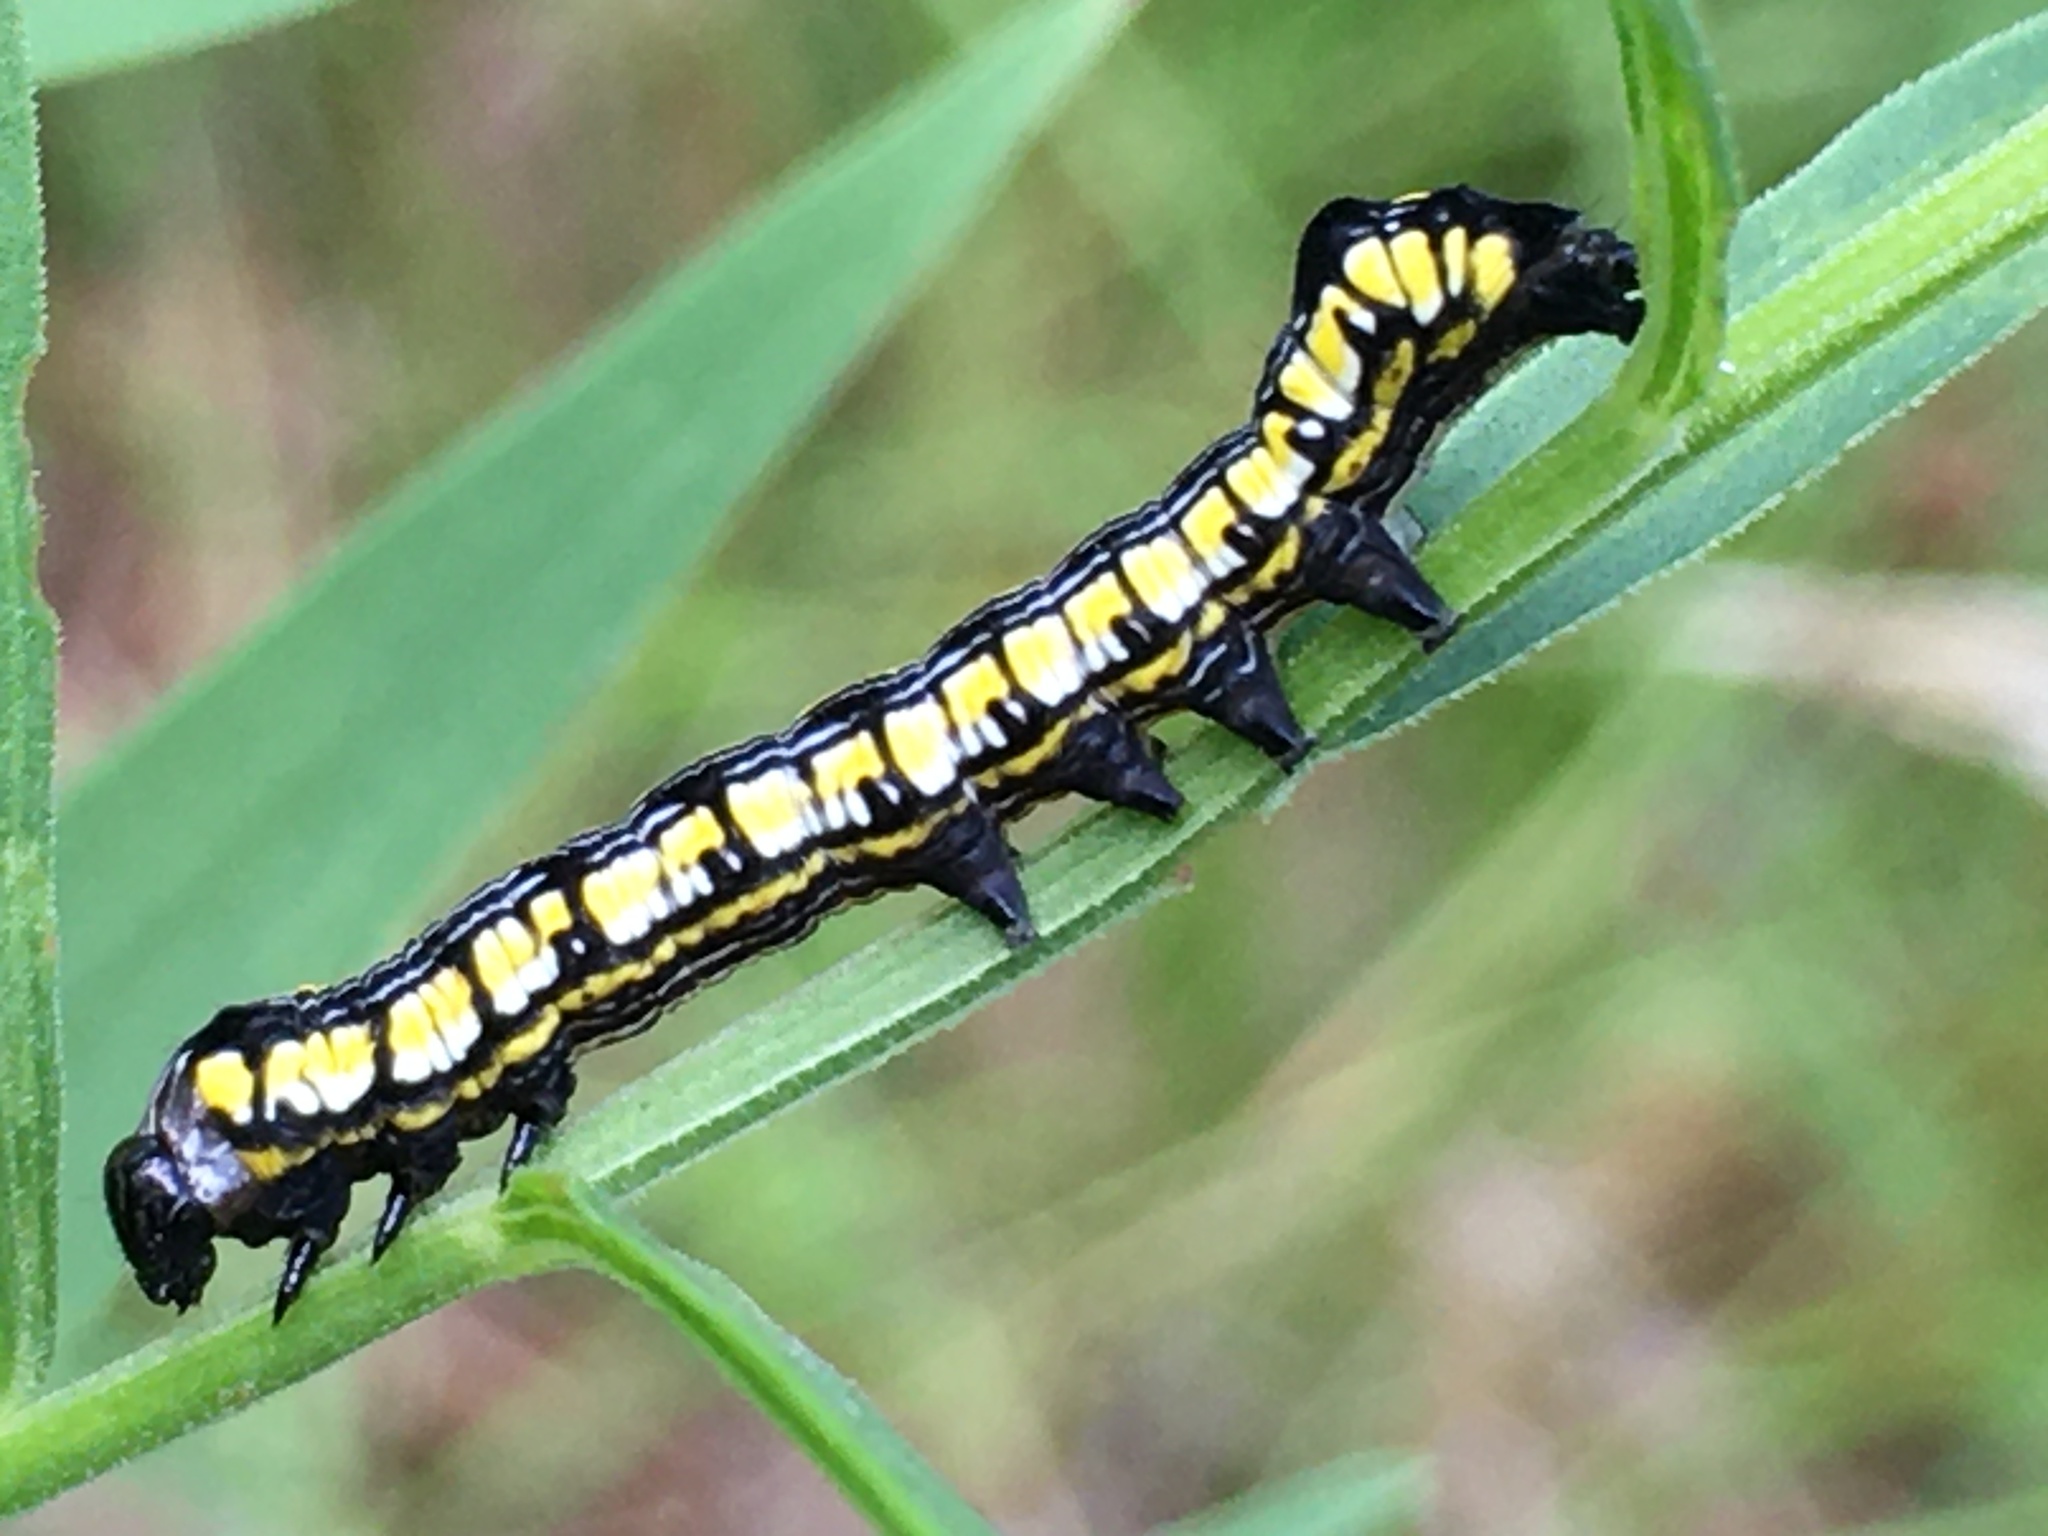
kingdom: Animalia
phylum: Arthropoda
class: Insecta
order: Lepidoptera
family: Noctuidae
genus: Cucullia
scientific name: Cucullia convexipennis
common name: Brown-hooded owlet
